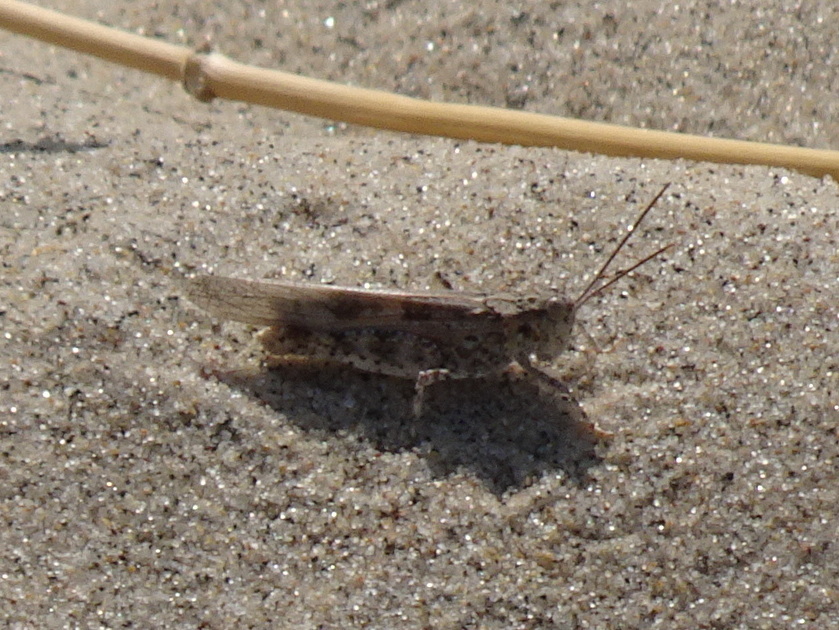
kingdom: Animalia
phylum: Arthropoda
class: Insecta
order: Orthoptera
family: Acrididae
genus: Trimerotropis
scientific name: Trimerotropis maritima
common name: Seaside locust
